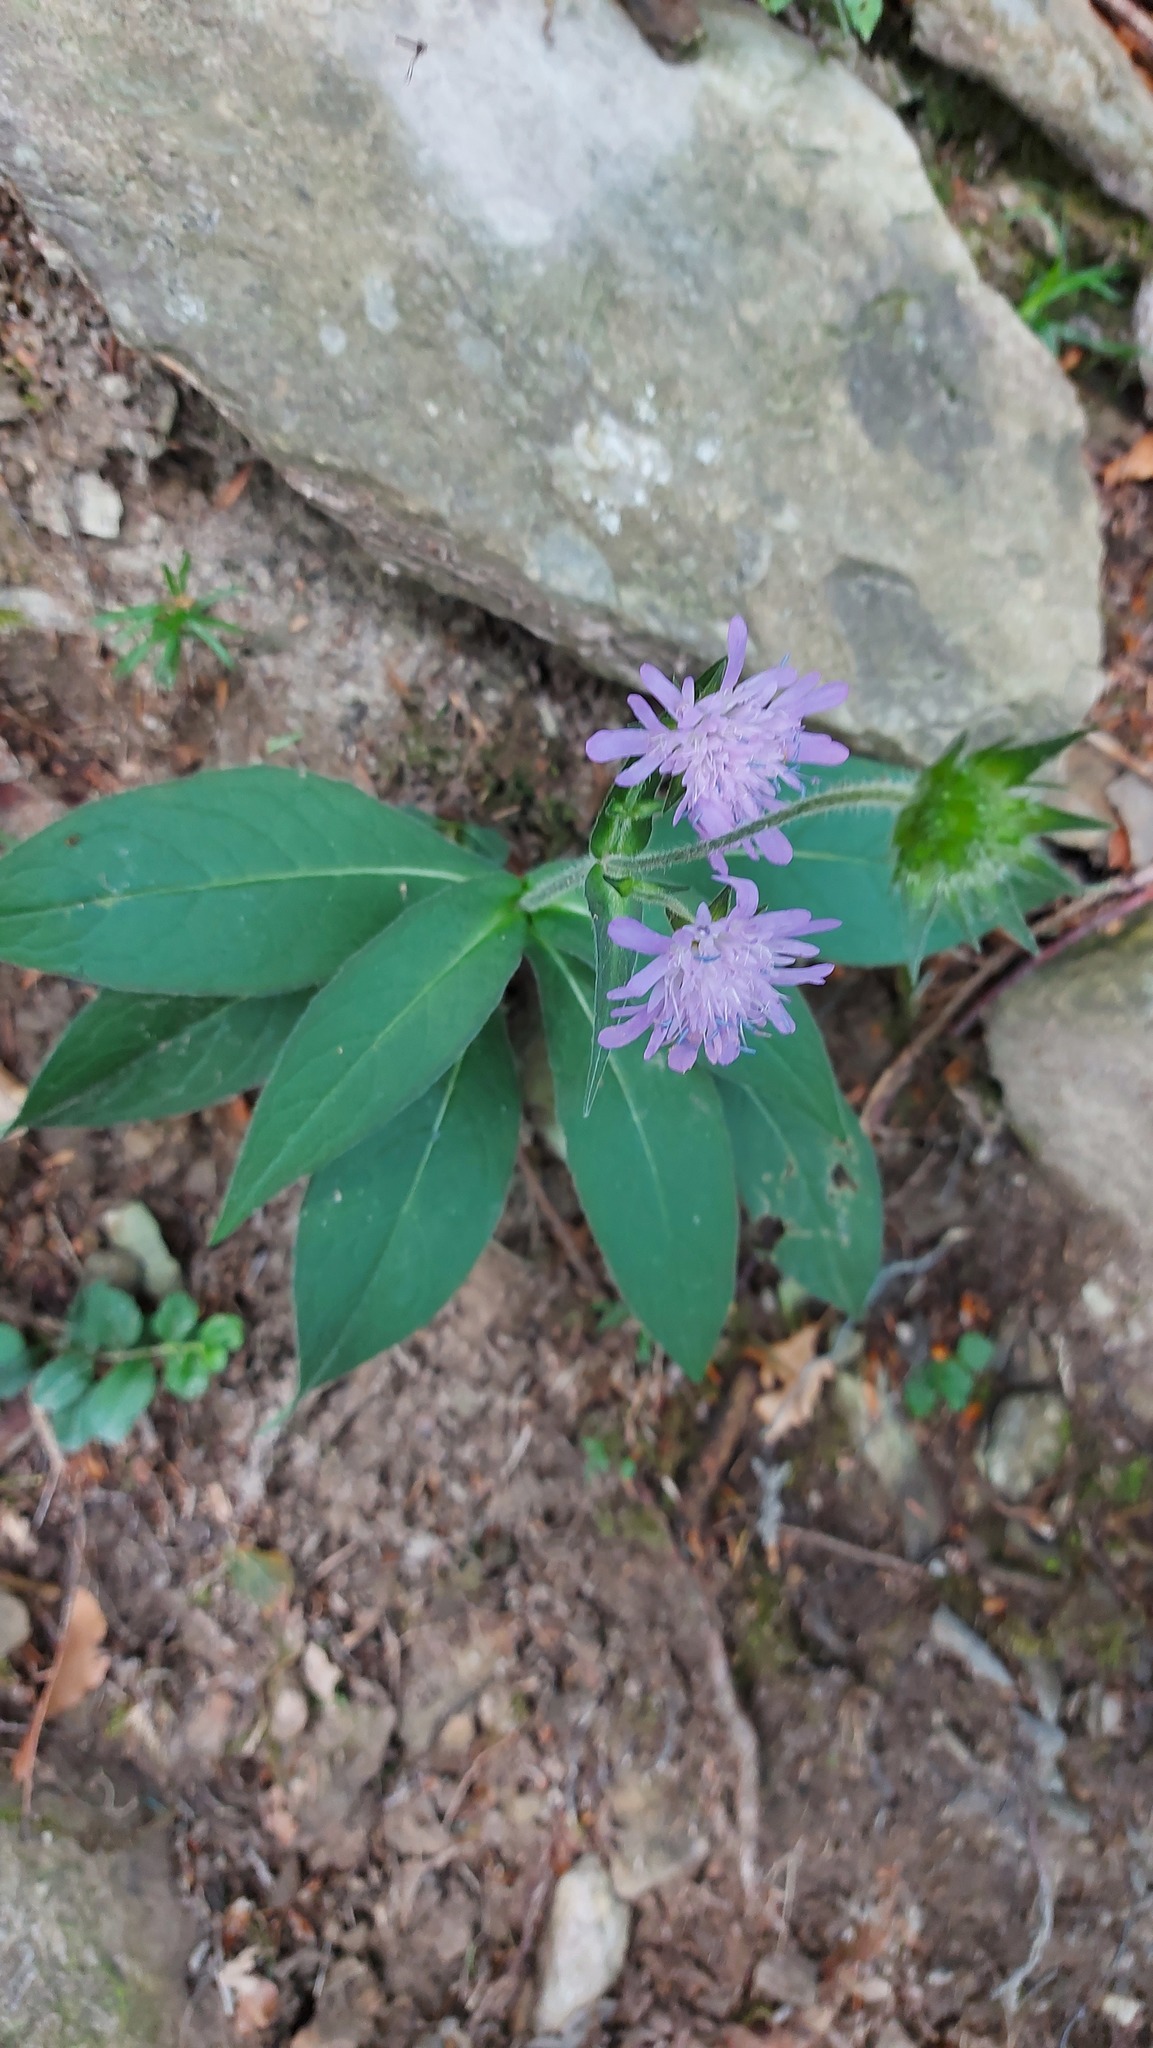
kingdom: Plantae
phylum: Tracheophyta
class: Magnoliopsida
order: Dipsacales
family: Caprifoliaceae
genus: Knautia
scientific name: Knautia dipsacifolia
